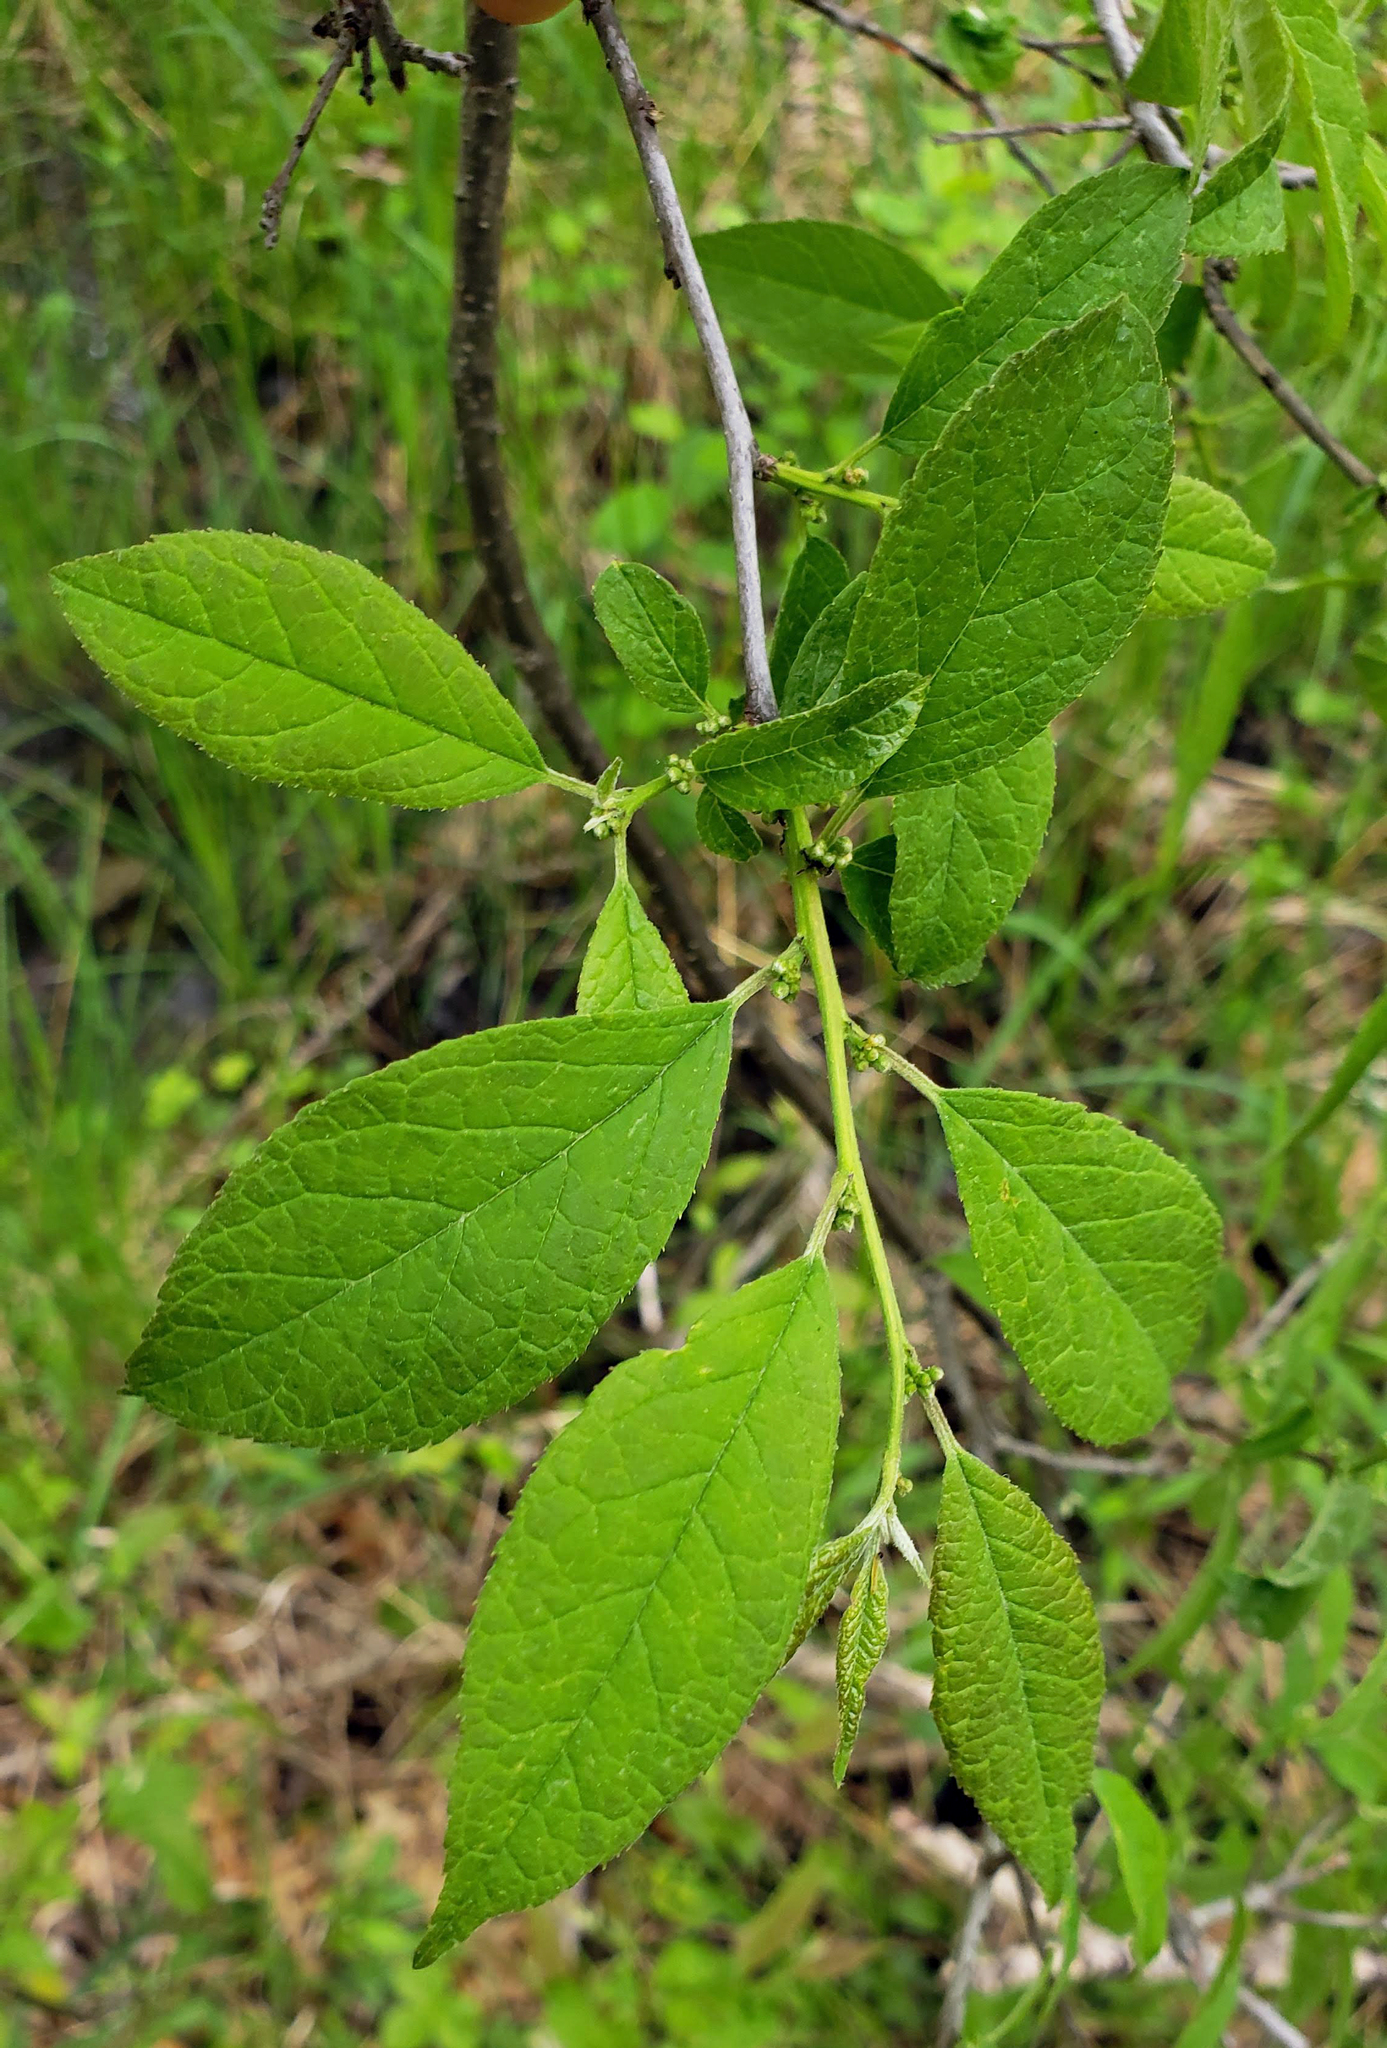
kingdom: Plantae
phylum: Tracheophyta
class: Magnoliopsida
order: Aquifoliales
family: Aquifoliaceae
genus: Ilex
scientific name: Ilex verticillata
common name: Virginia winterberry
